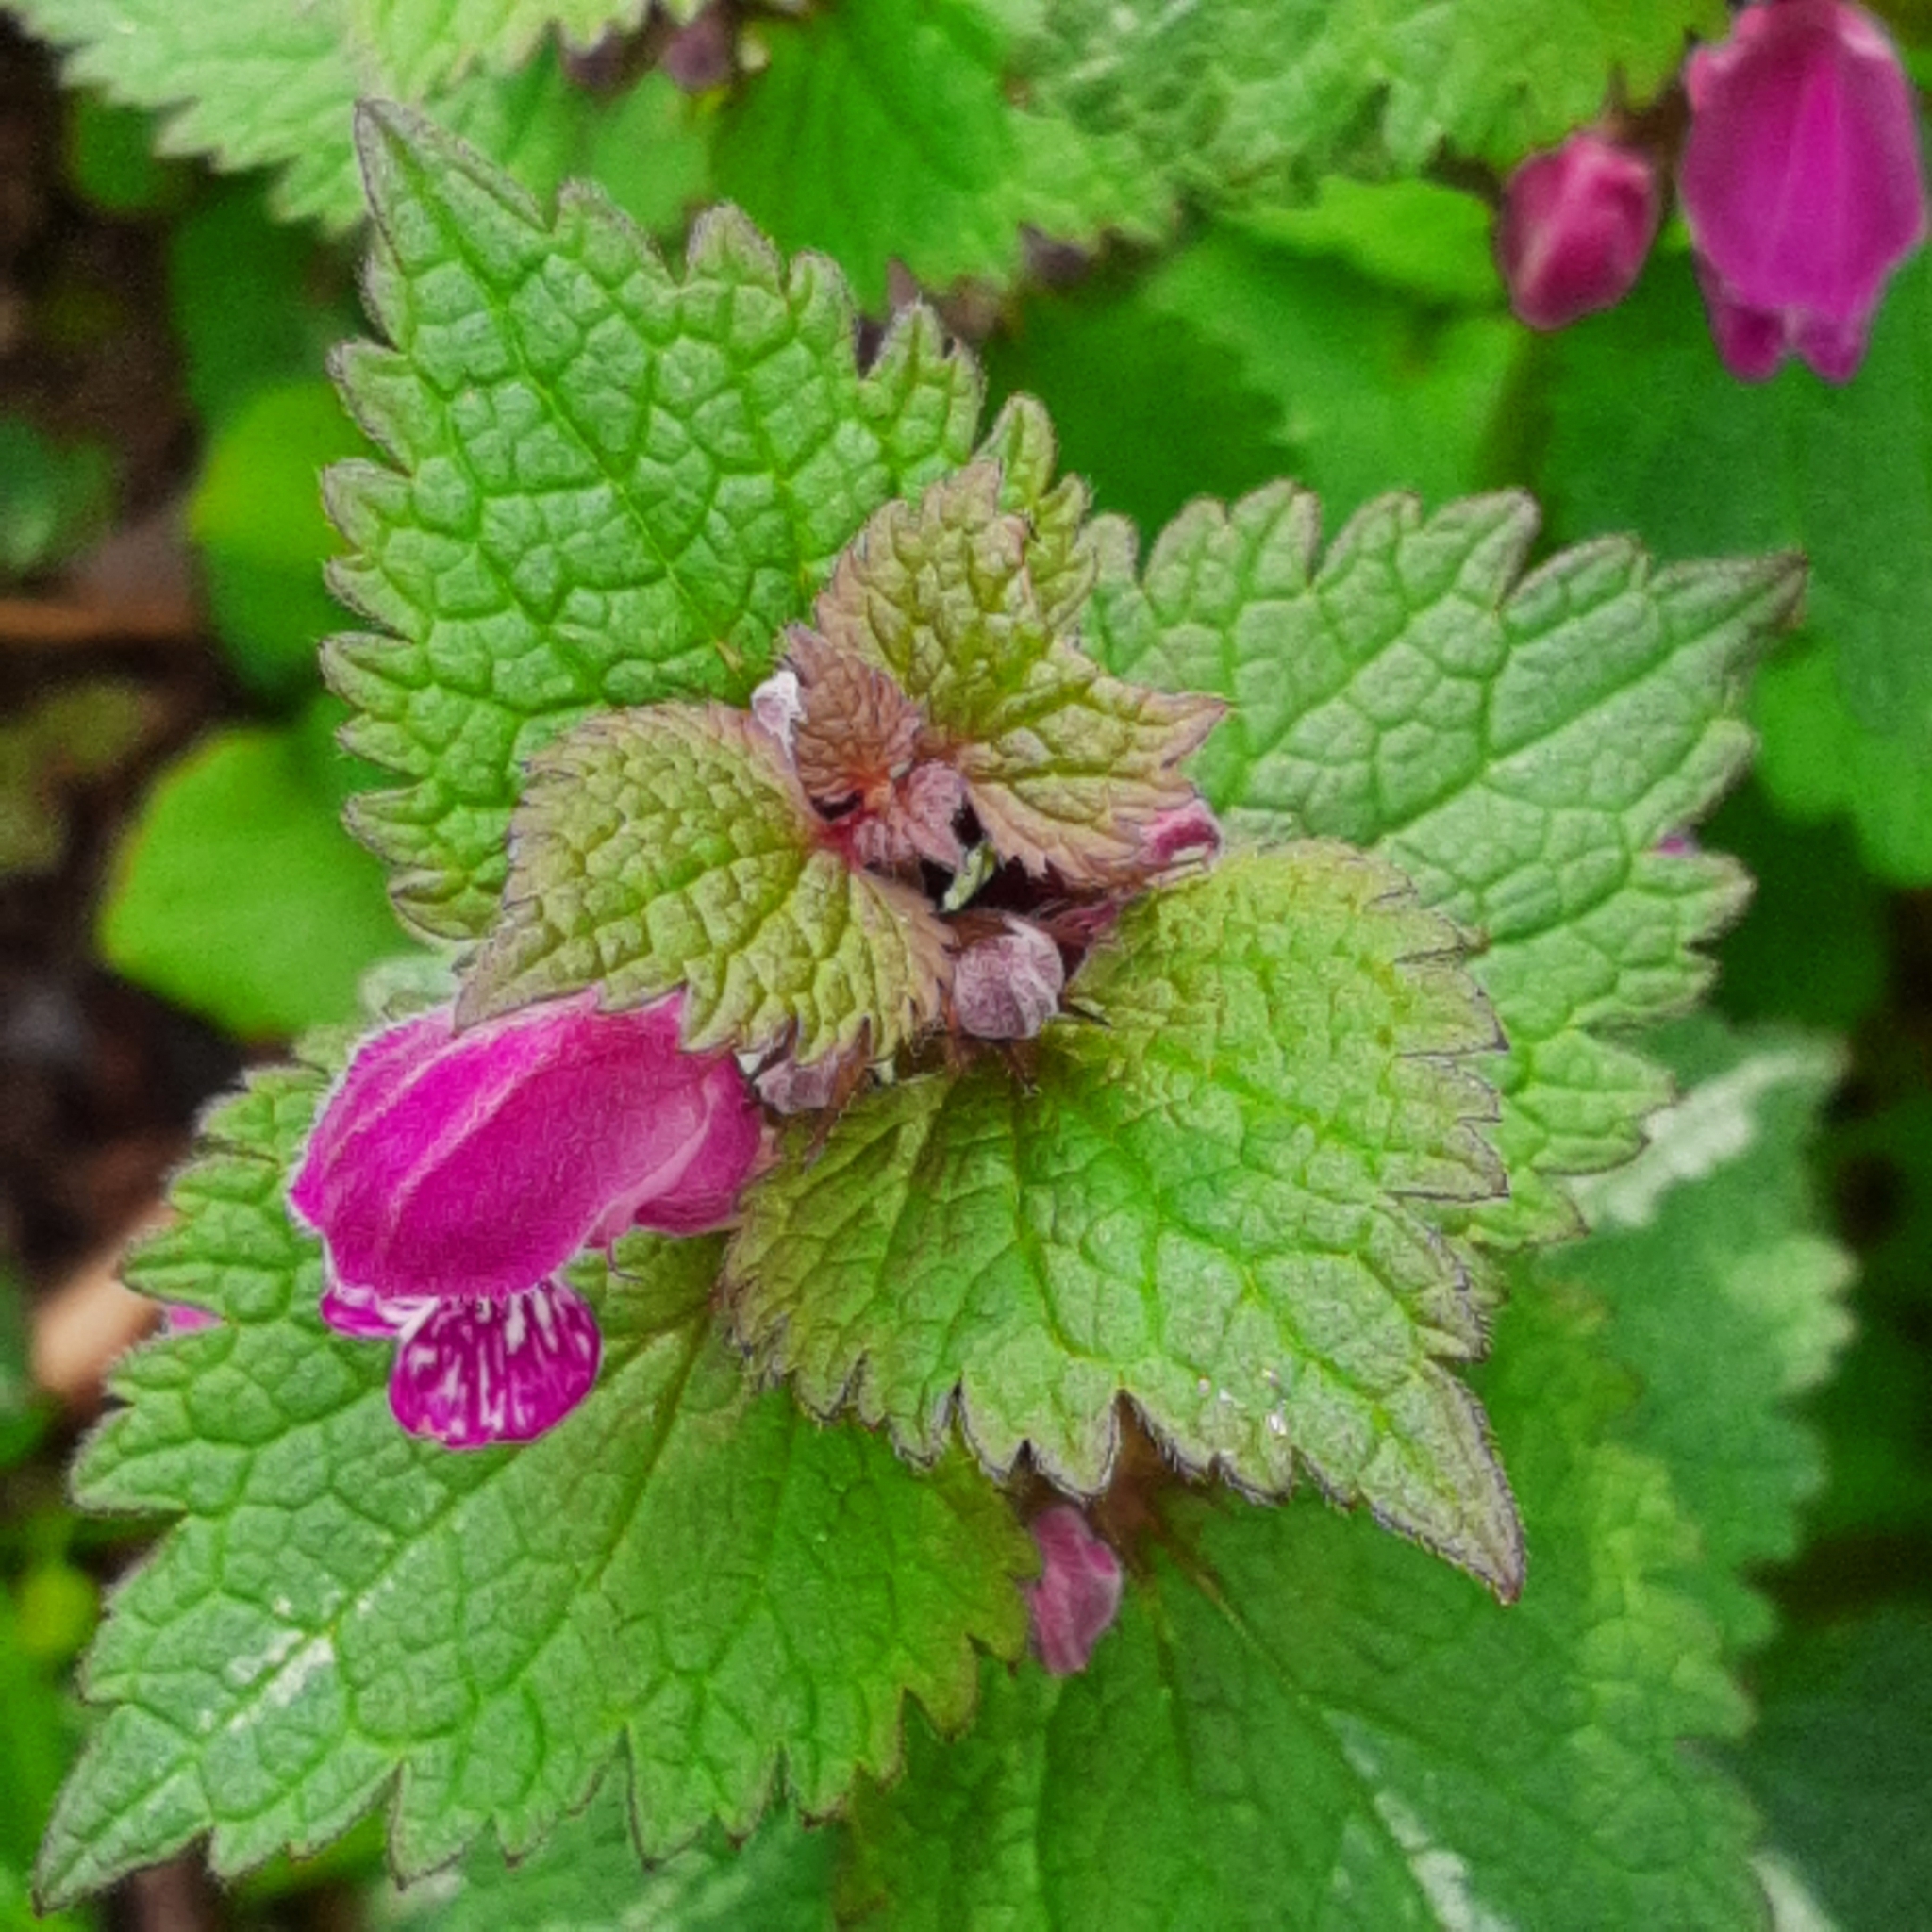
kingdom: Plantae
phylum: Tracheophyta
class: Magnoliopsida
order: Lamiales
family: Lamiaceae
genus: Lamium
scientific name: Lamium maculatum
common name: Spotted dead-nettle
